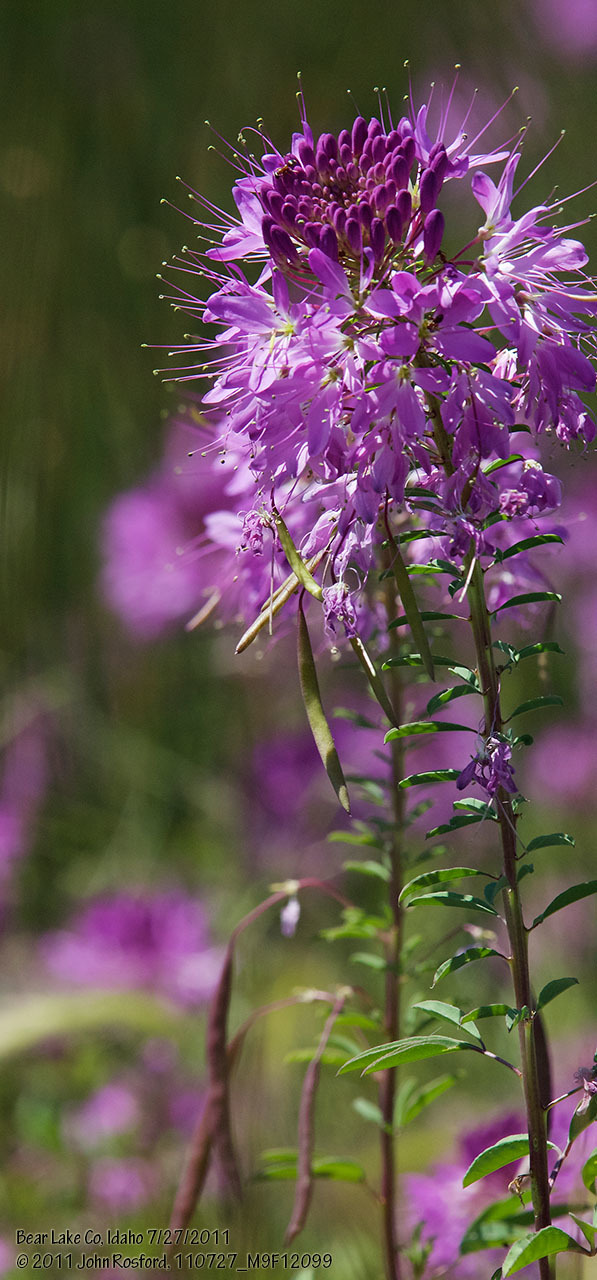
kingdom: Plantae
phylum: Tracheophyta
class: Magnoliopsida
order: Brassicales
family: Cleomaceae
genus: Cleomella
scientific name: Cleomella serrulata
